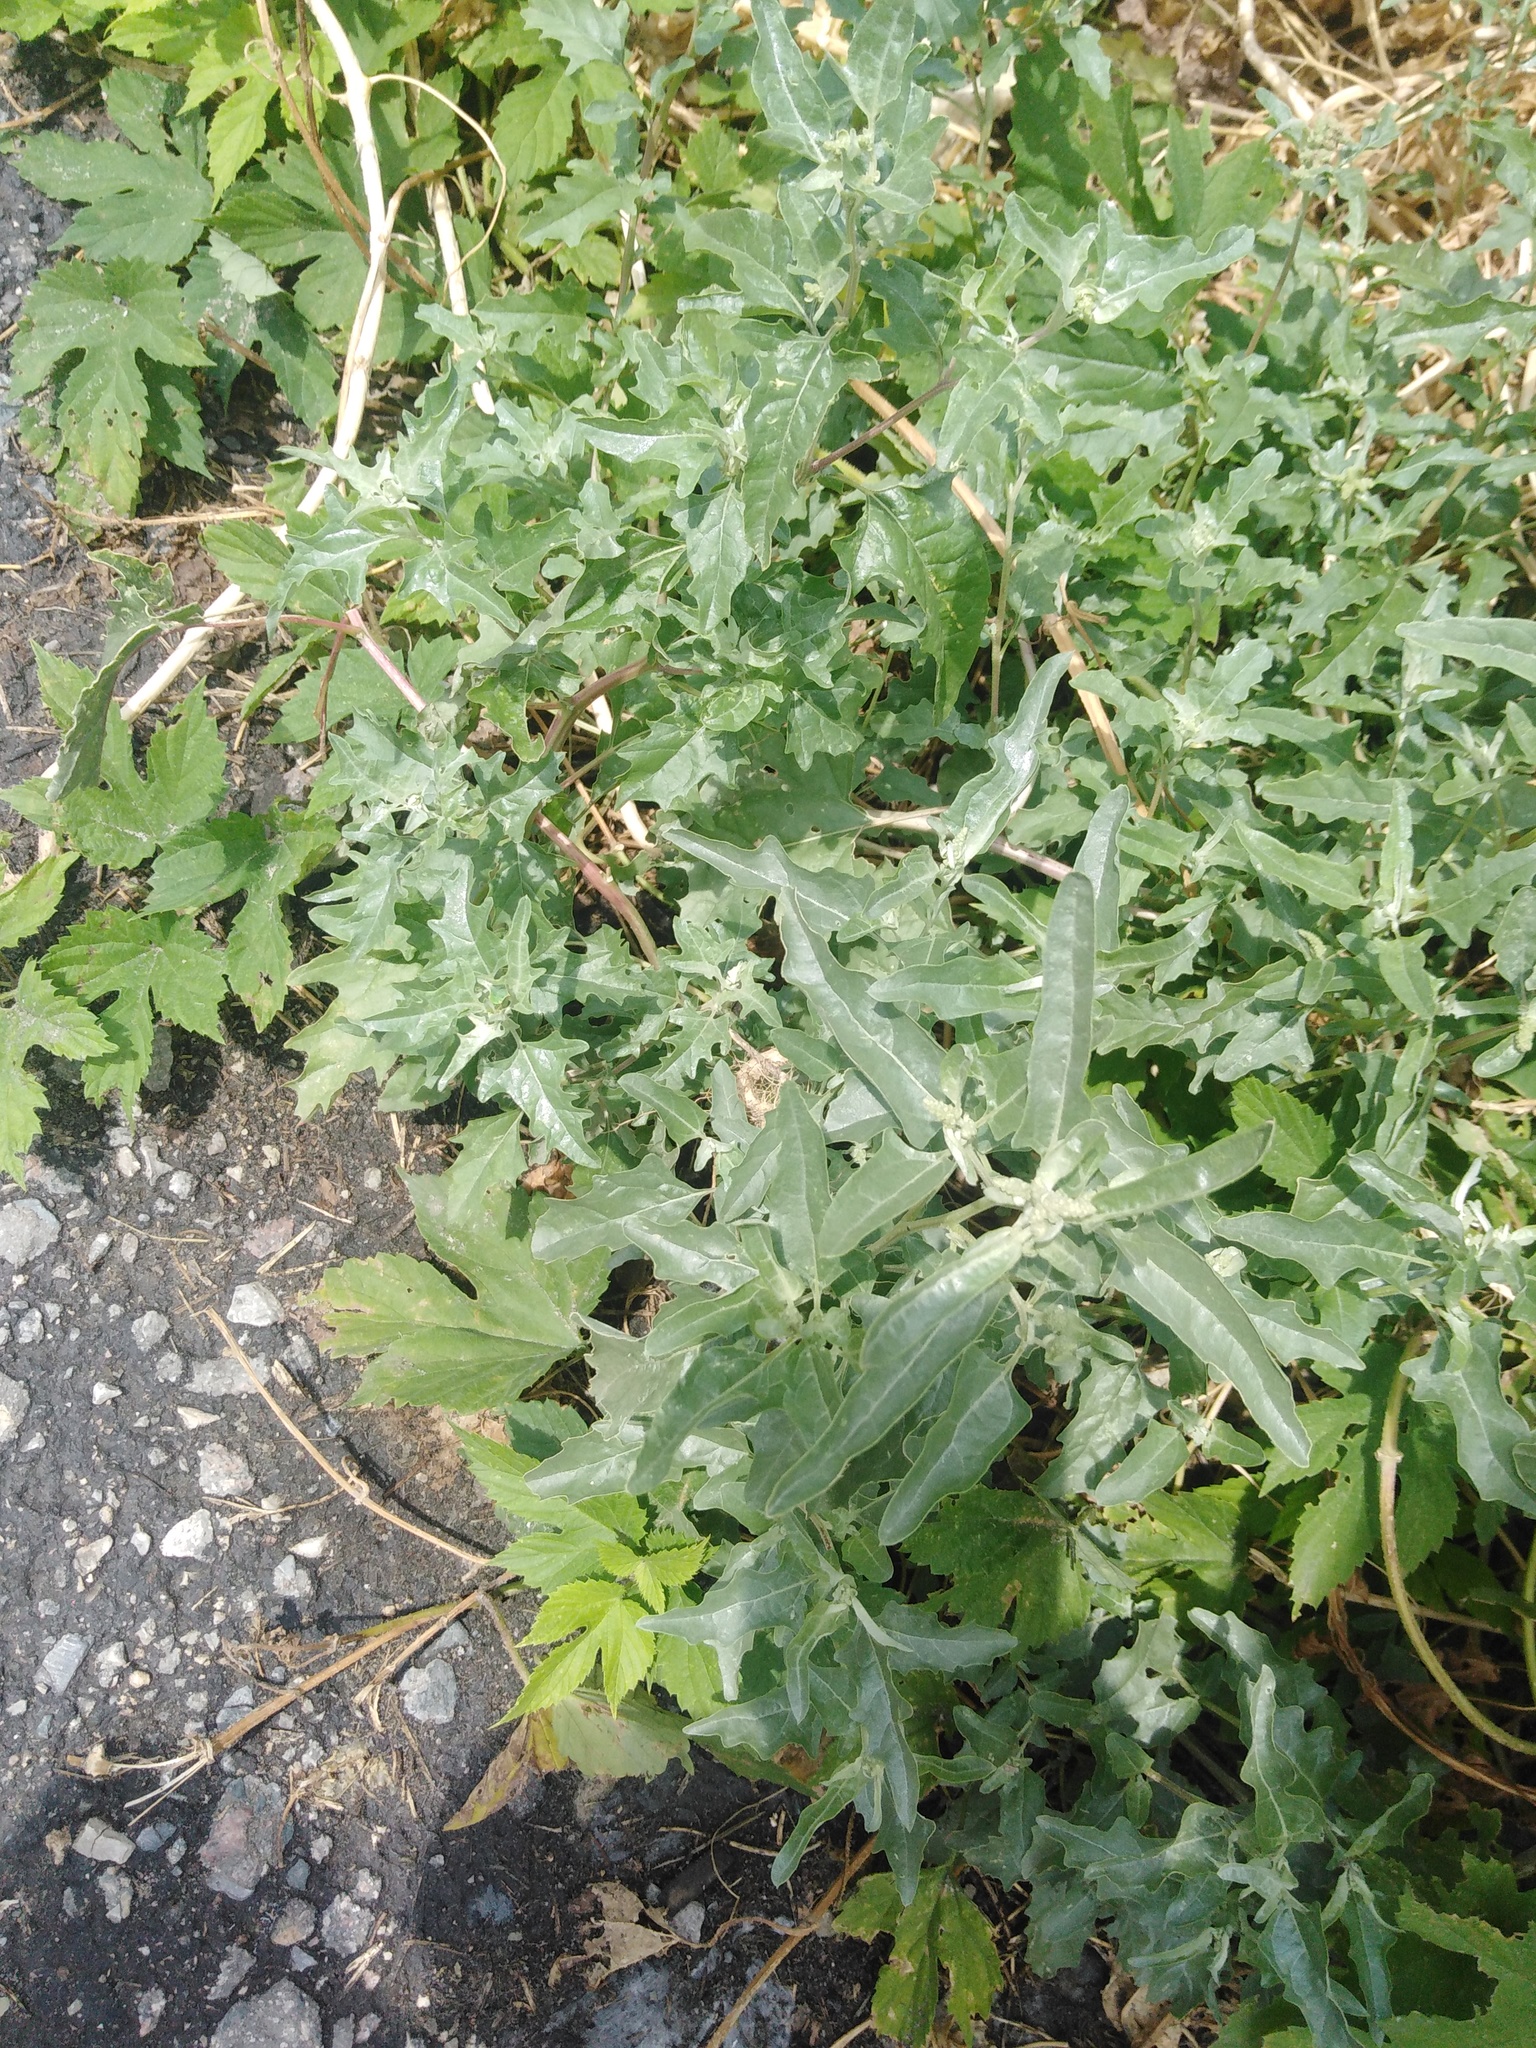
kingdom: Plantae
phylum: Tracheophyta
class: Magnoliopsida
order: Caryophyllales
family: Amaranthaceae
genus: Atriplex
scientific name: Atriplex tatarica
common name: Tatarian orache
